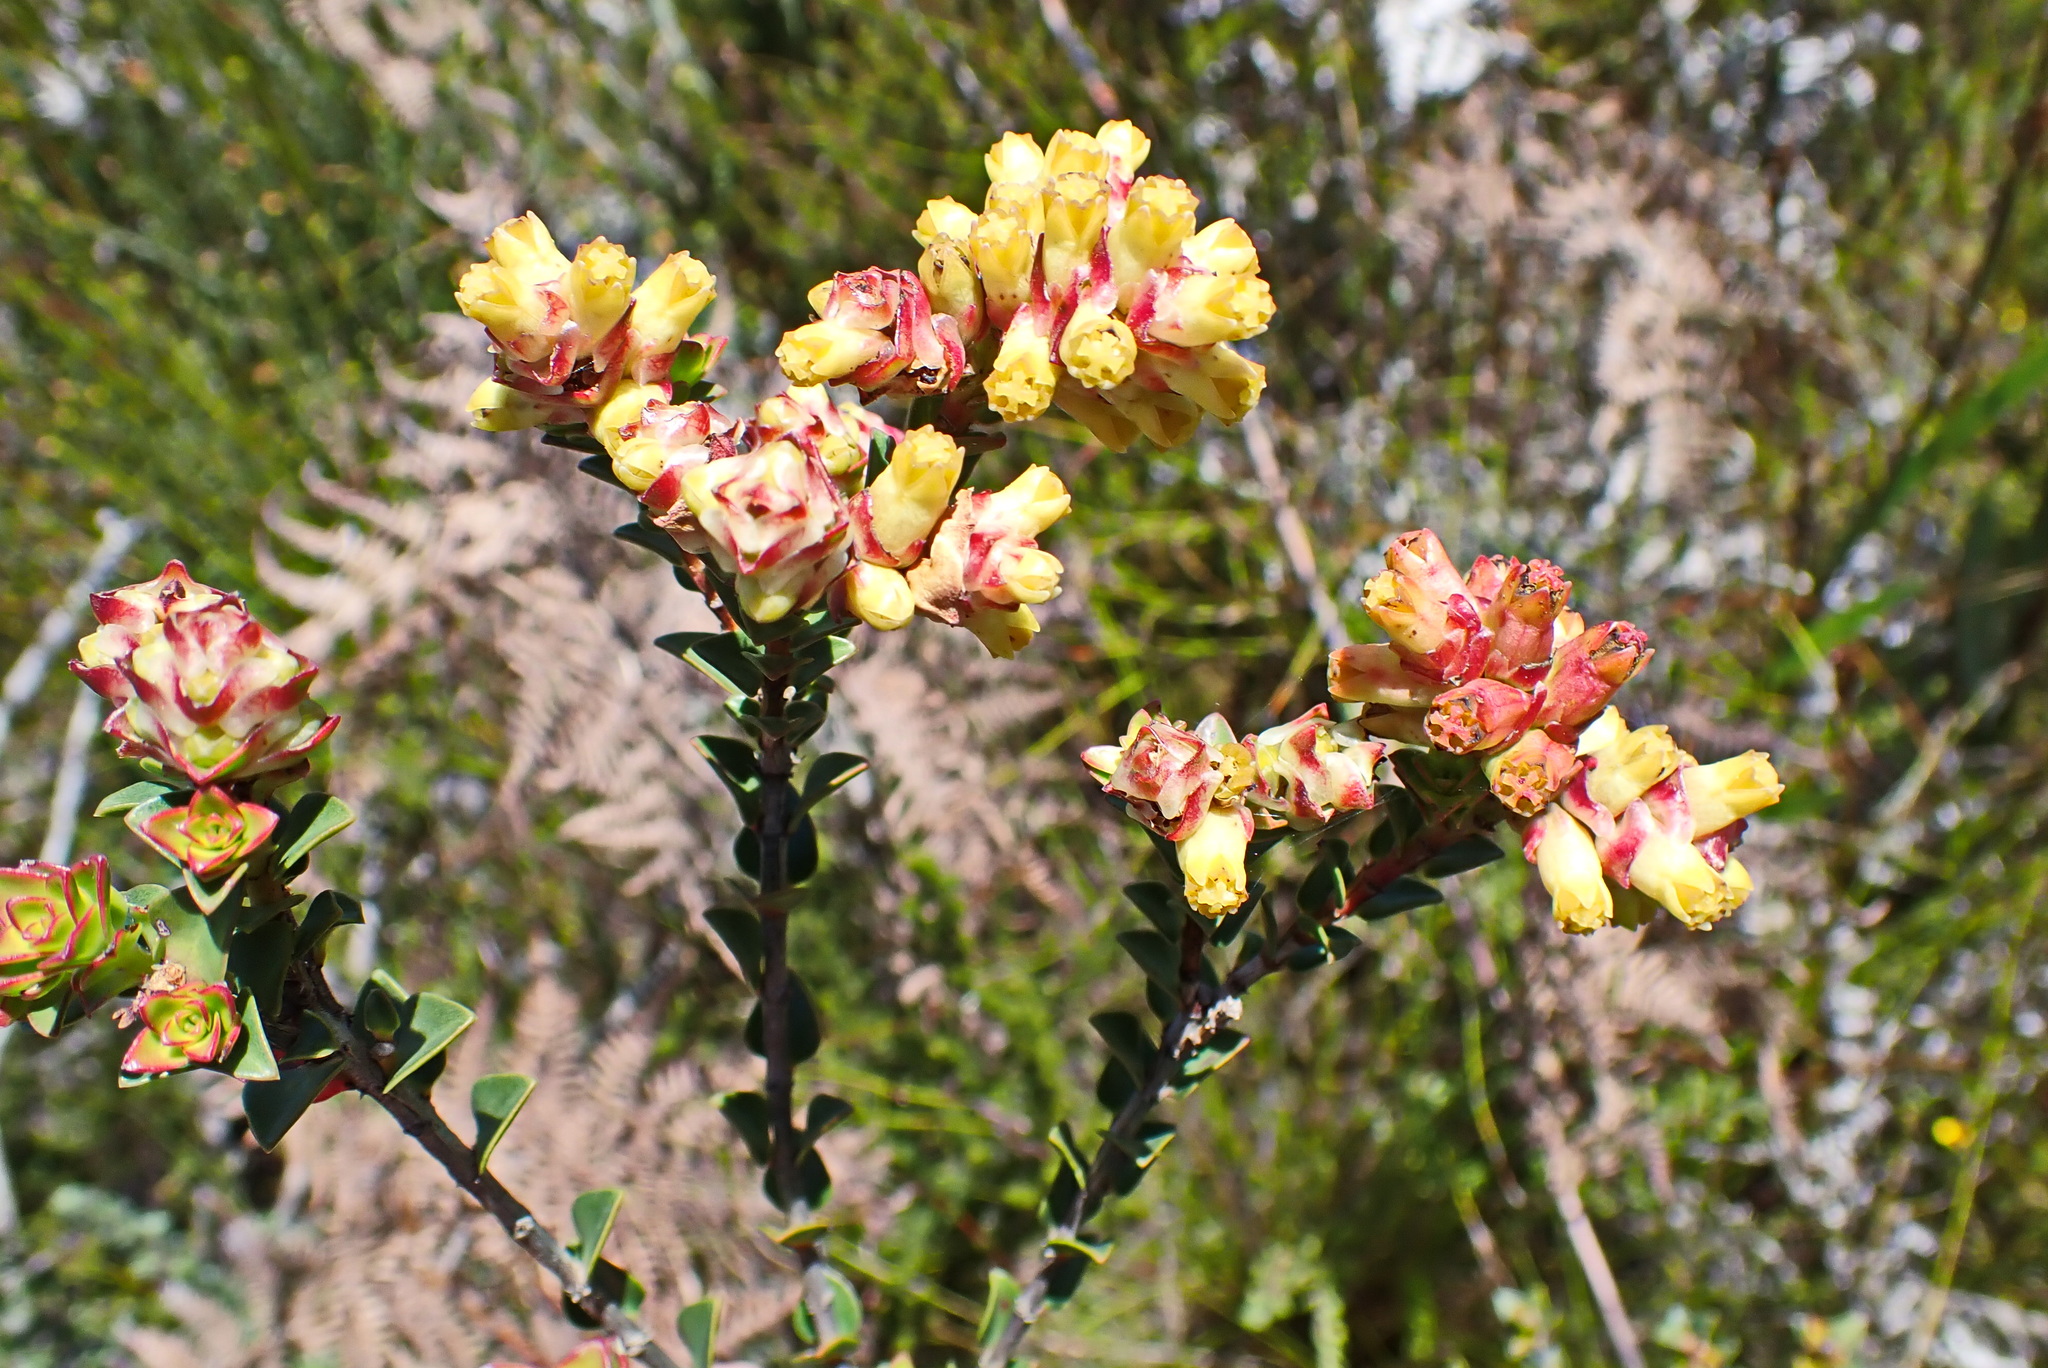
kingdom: Plantae
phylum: Tracheophyta
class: Magnoliopsida
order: Myrtales
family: Penaeaceae
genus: Penaea
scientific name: Penaea cneorum
